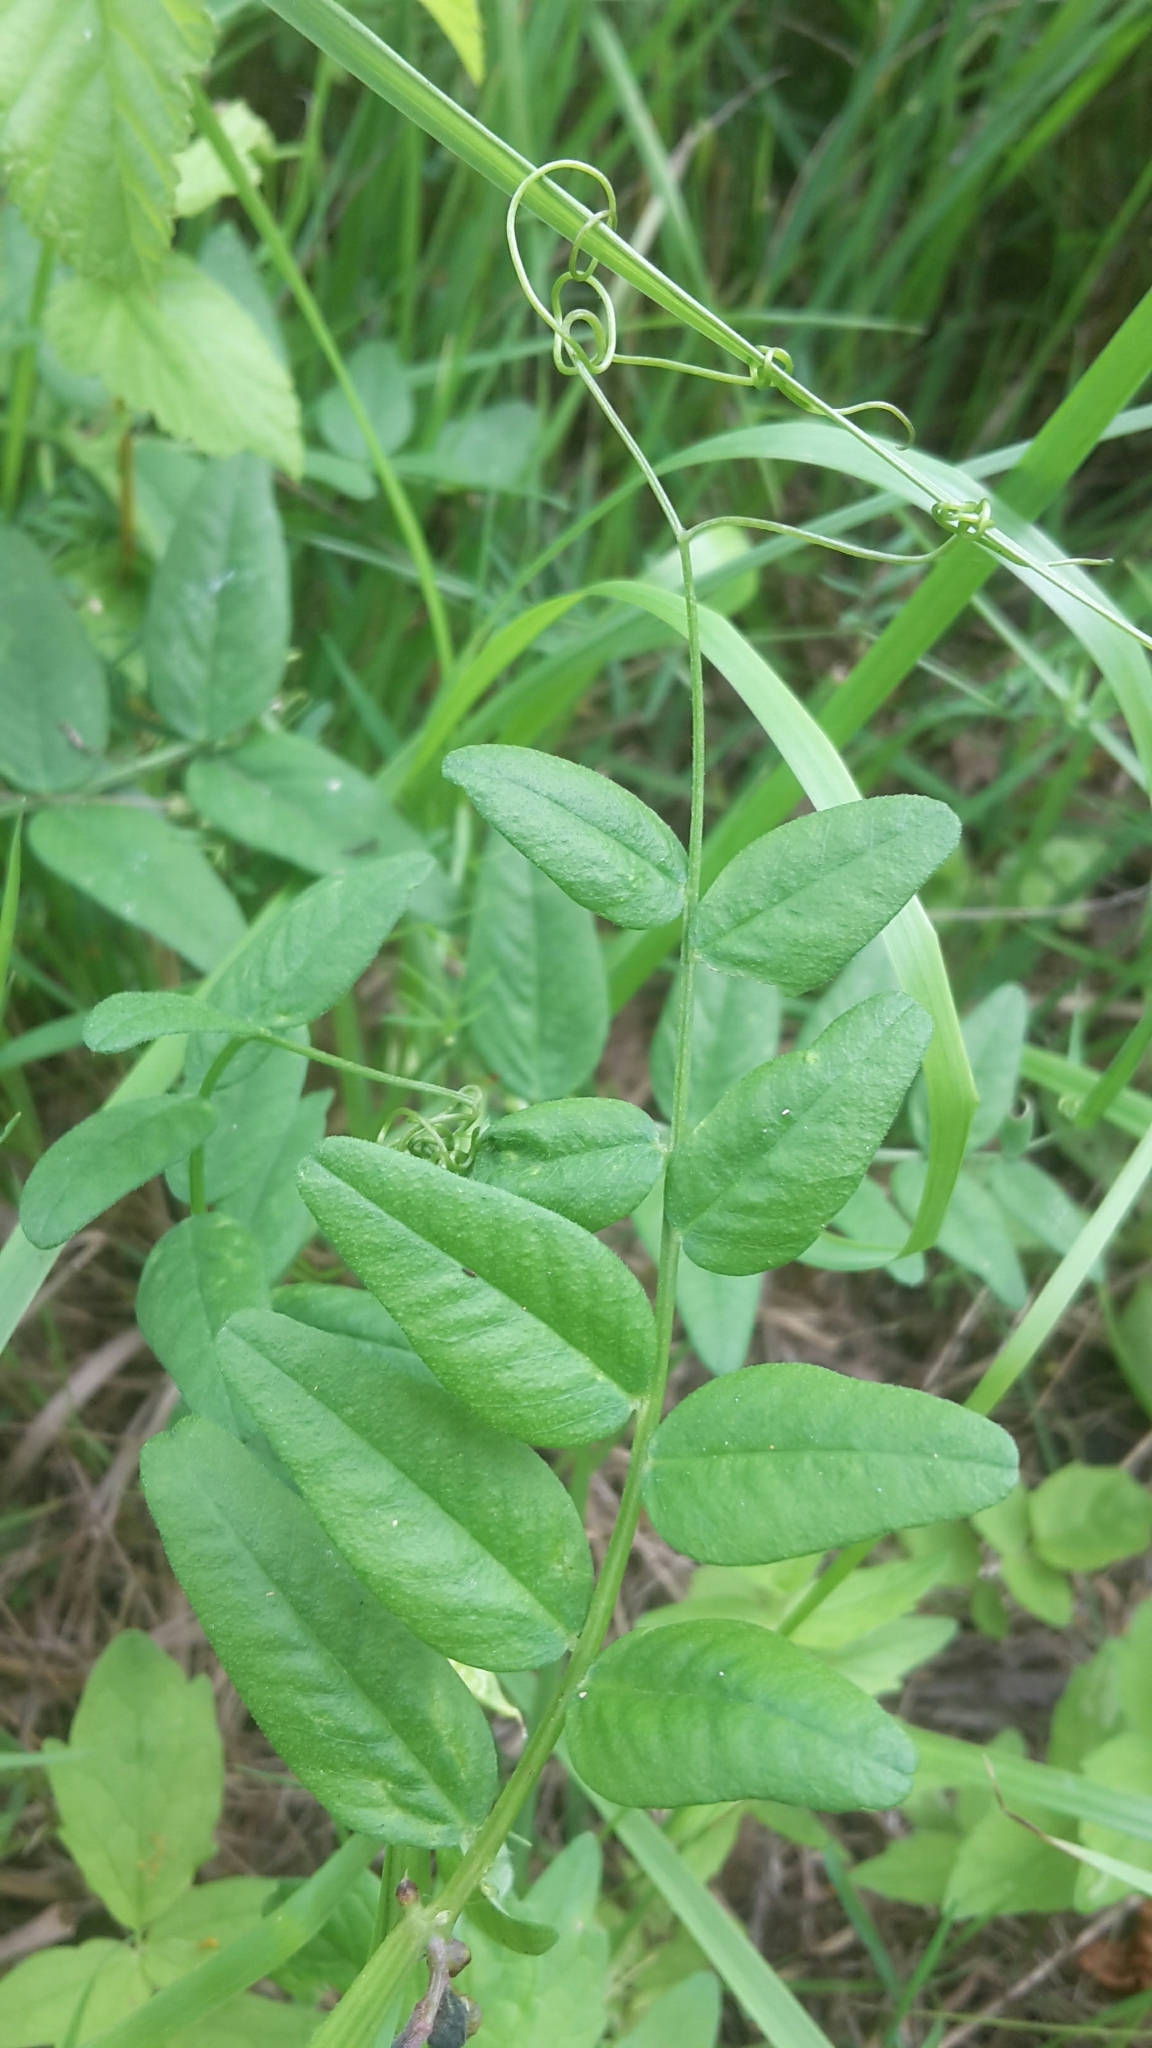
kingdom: Plantae
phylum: Tracheophyta
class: Magnoliopsida
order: Fabales
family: Fabaceae
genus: Vicia
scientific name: Vicia sepium
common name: Bush vetch
